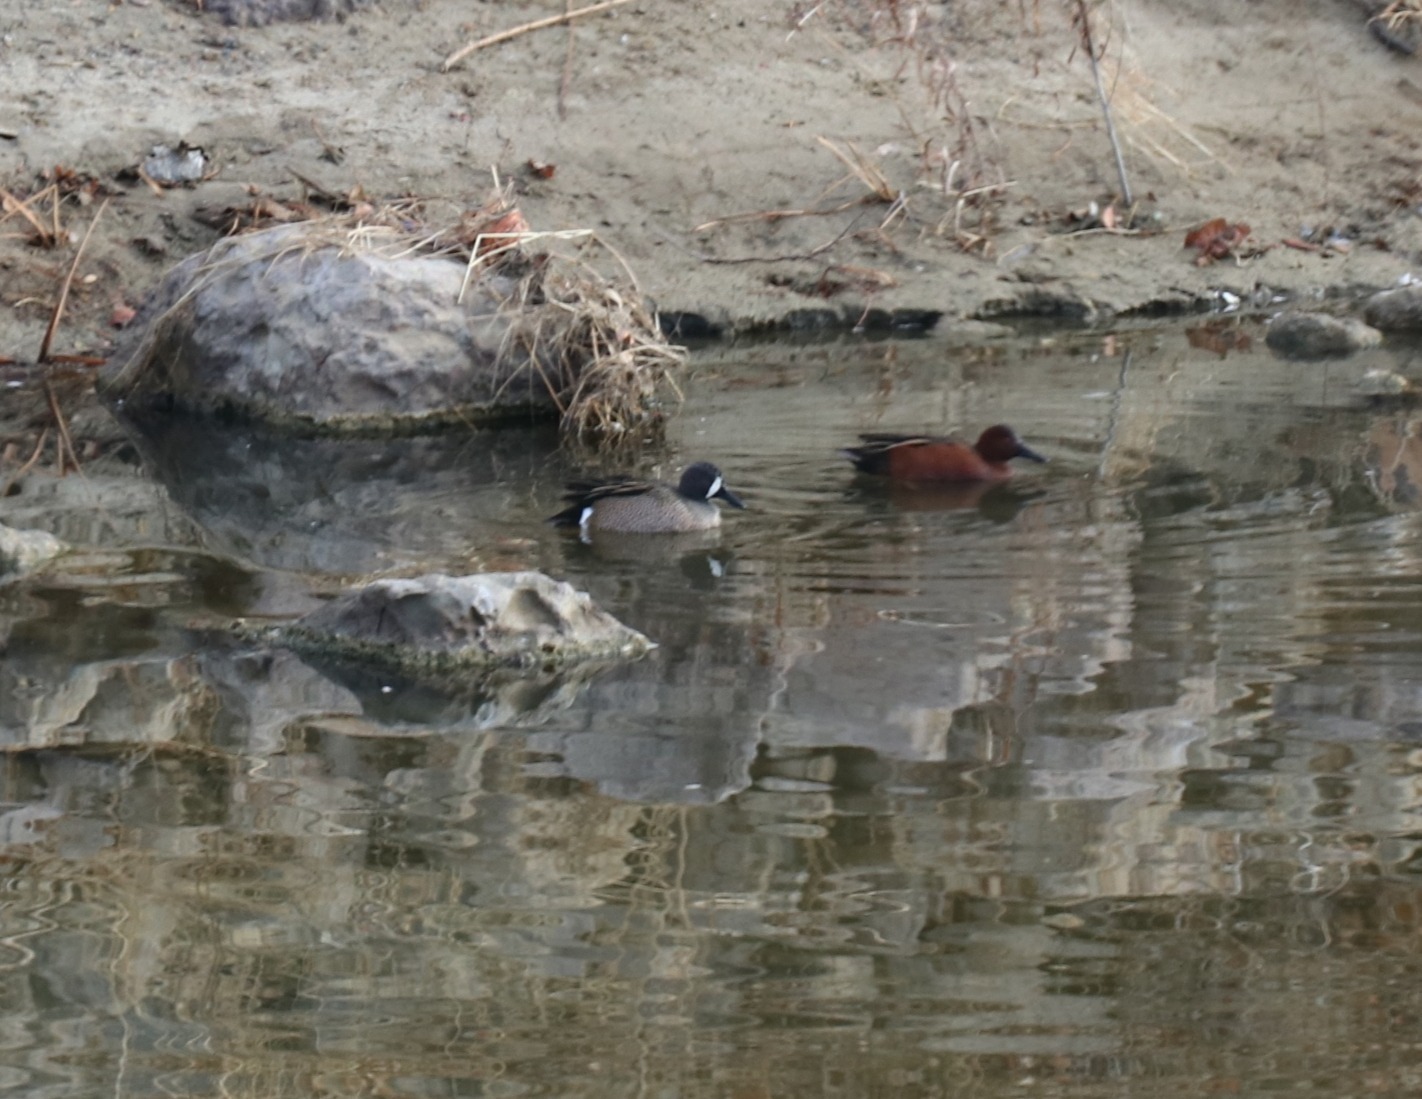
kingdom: Animalia
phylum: Chordata
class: Aves
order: Anseriformes
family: Anatidae
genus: Spatula
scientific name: Spatula discors
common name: Blue-winged teal
